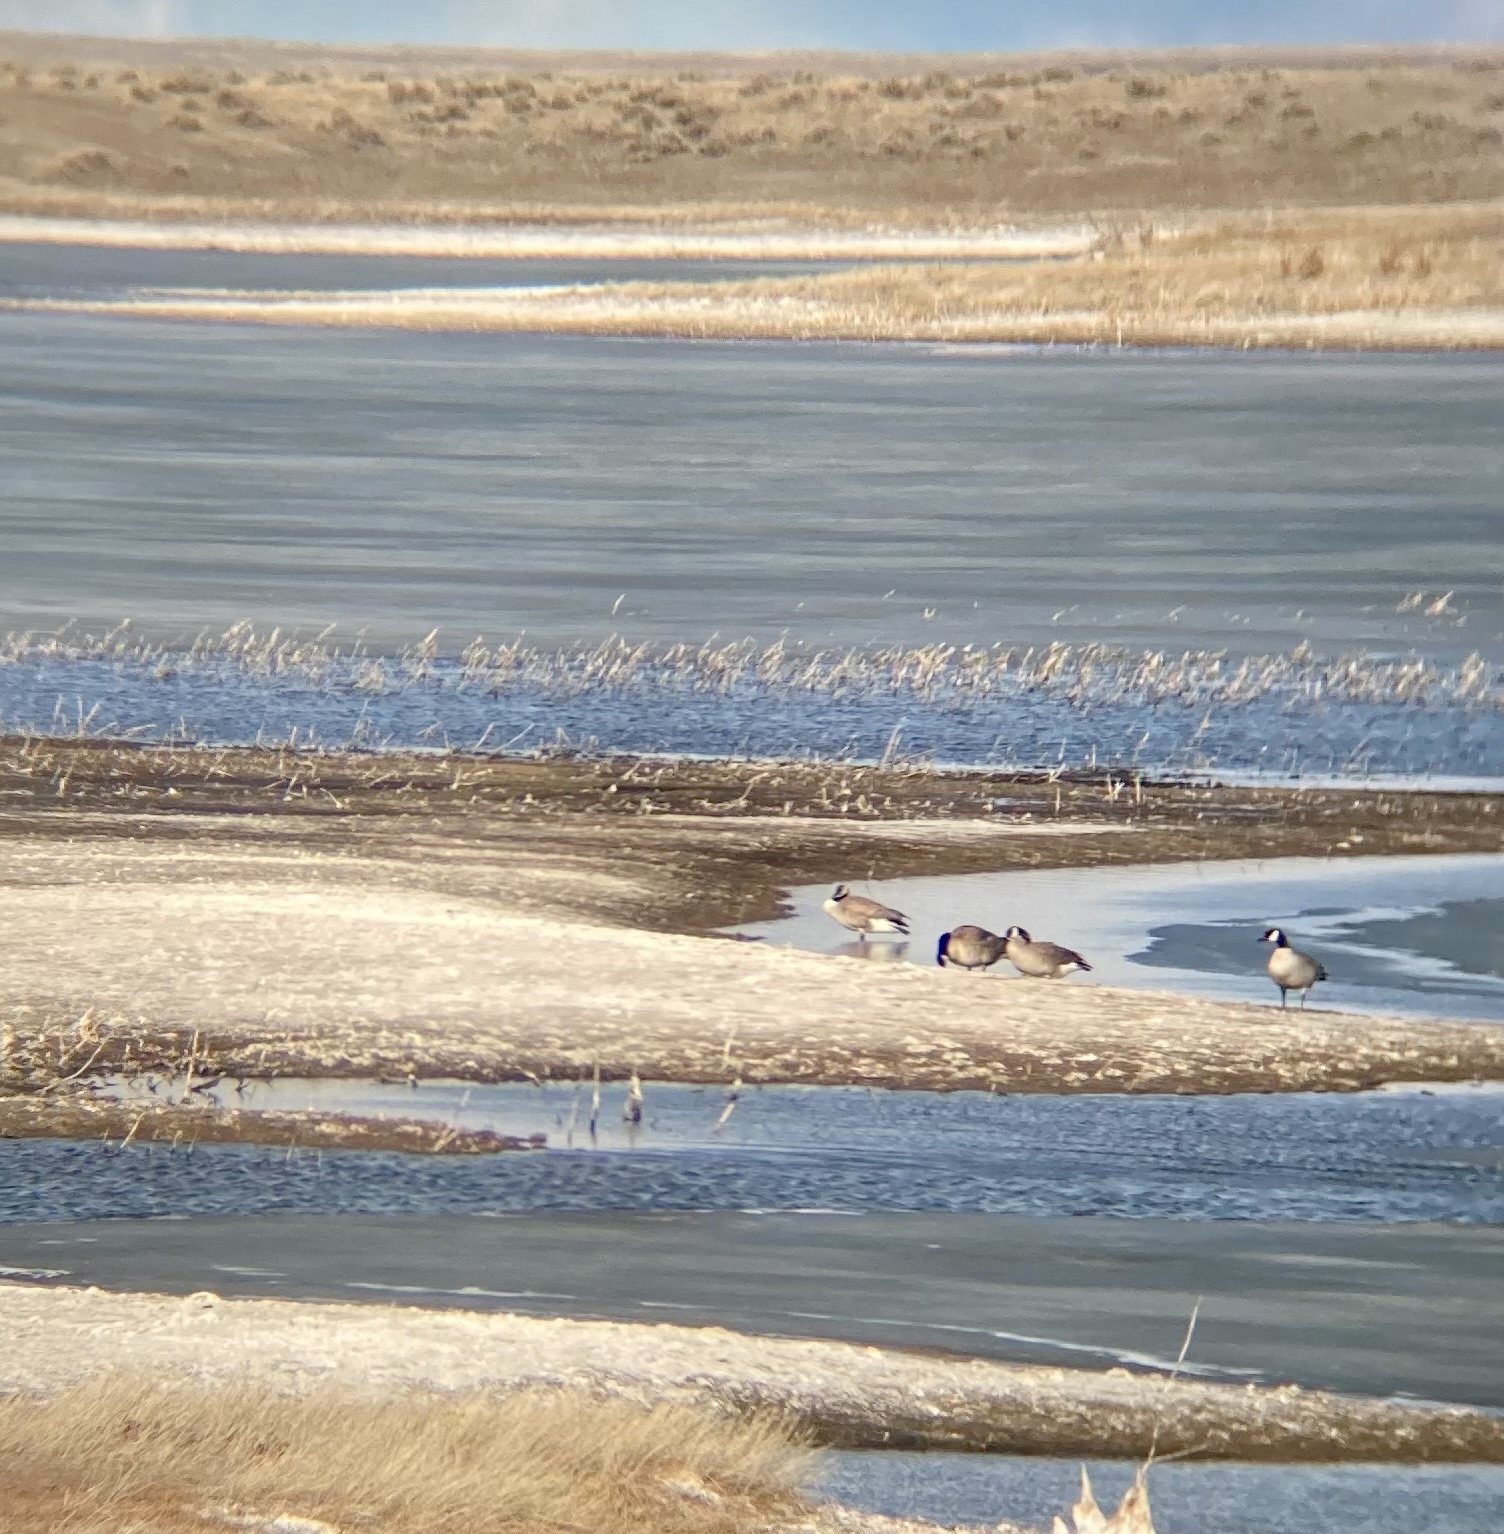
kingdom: Animalia
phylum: Chordata
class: Aves
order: Anseriformes
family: Anatidae
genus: Branta
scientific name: Branta canadensis
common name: Canada goose
